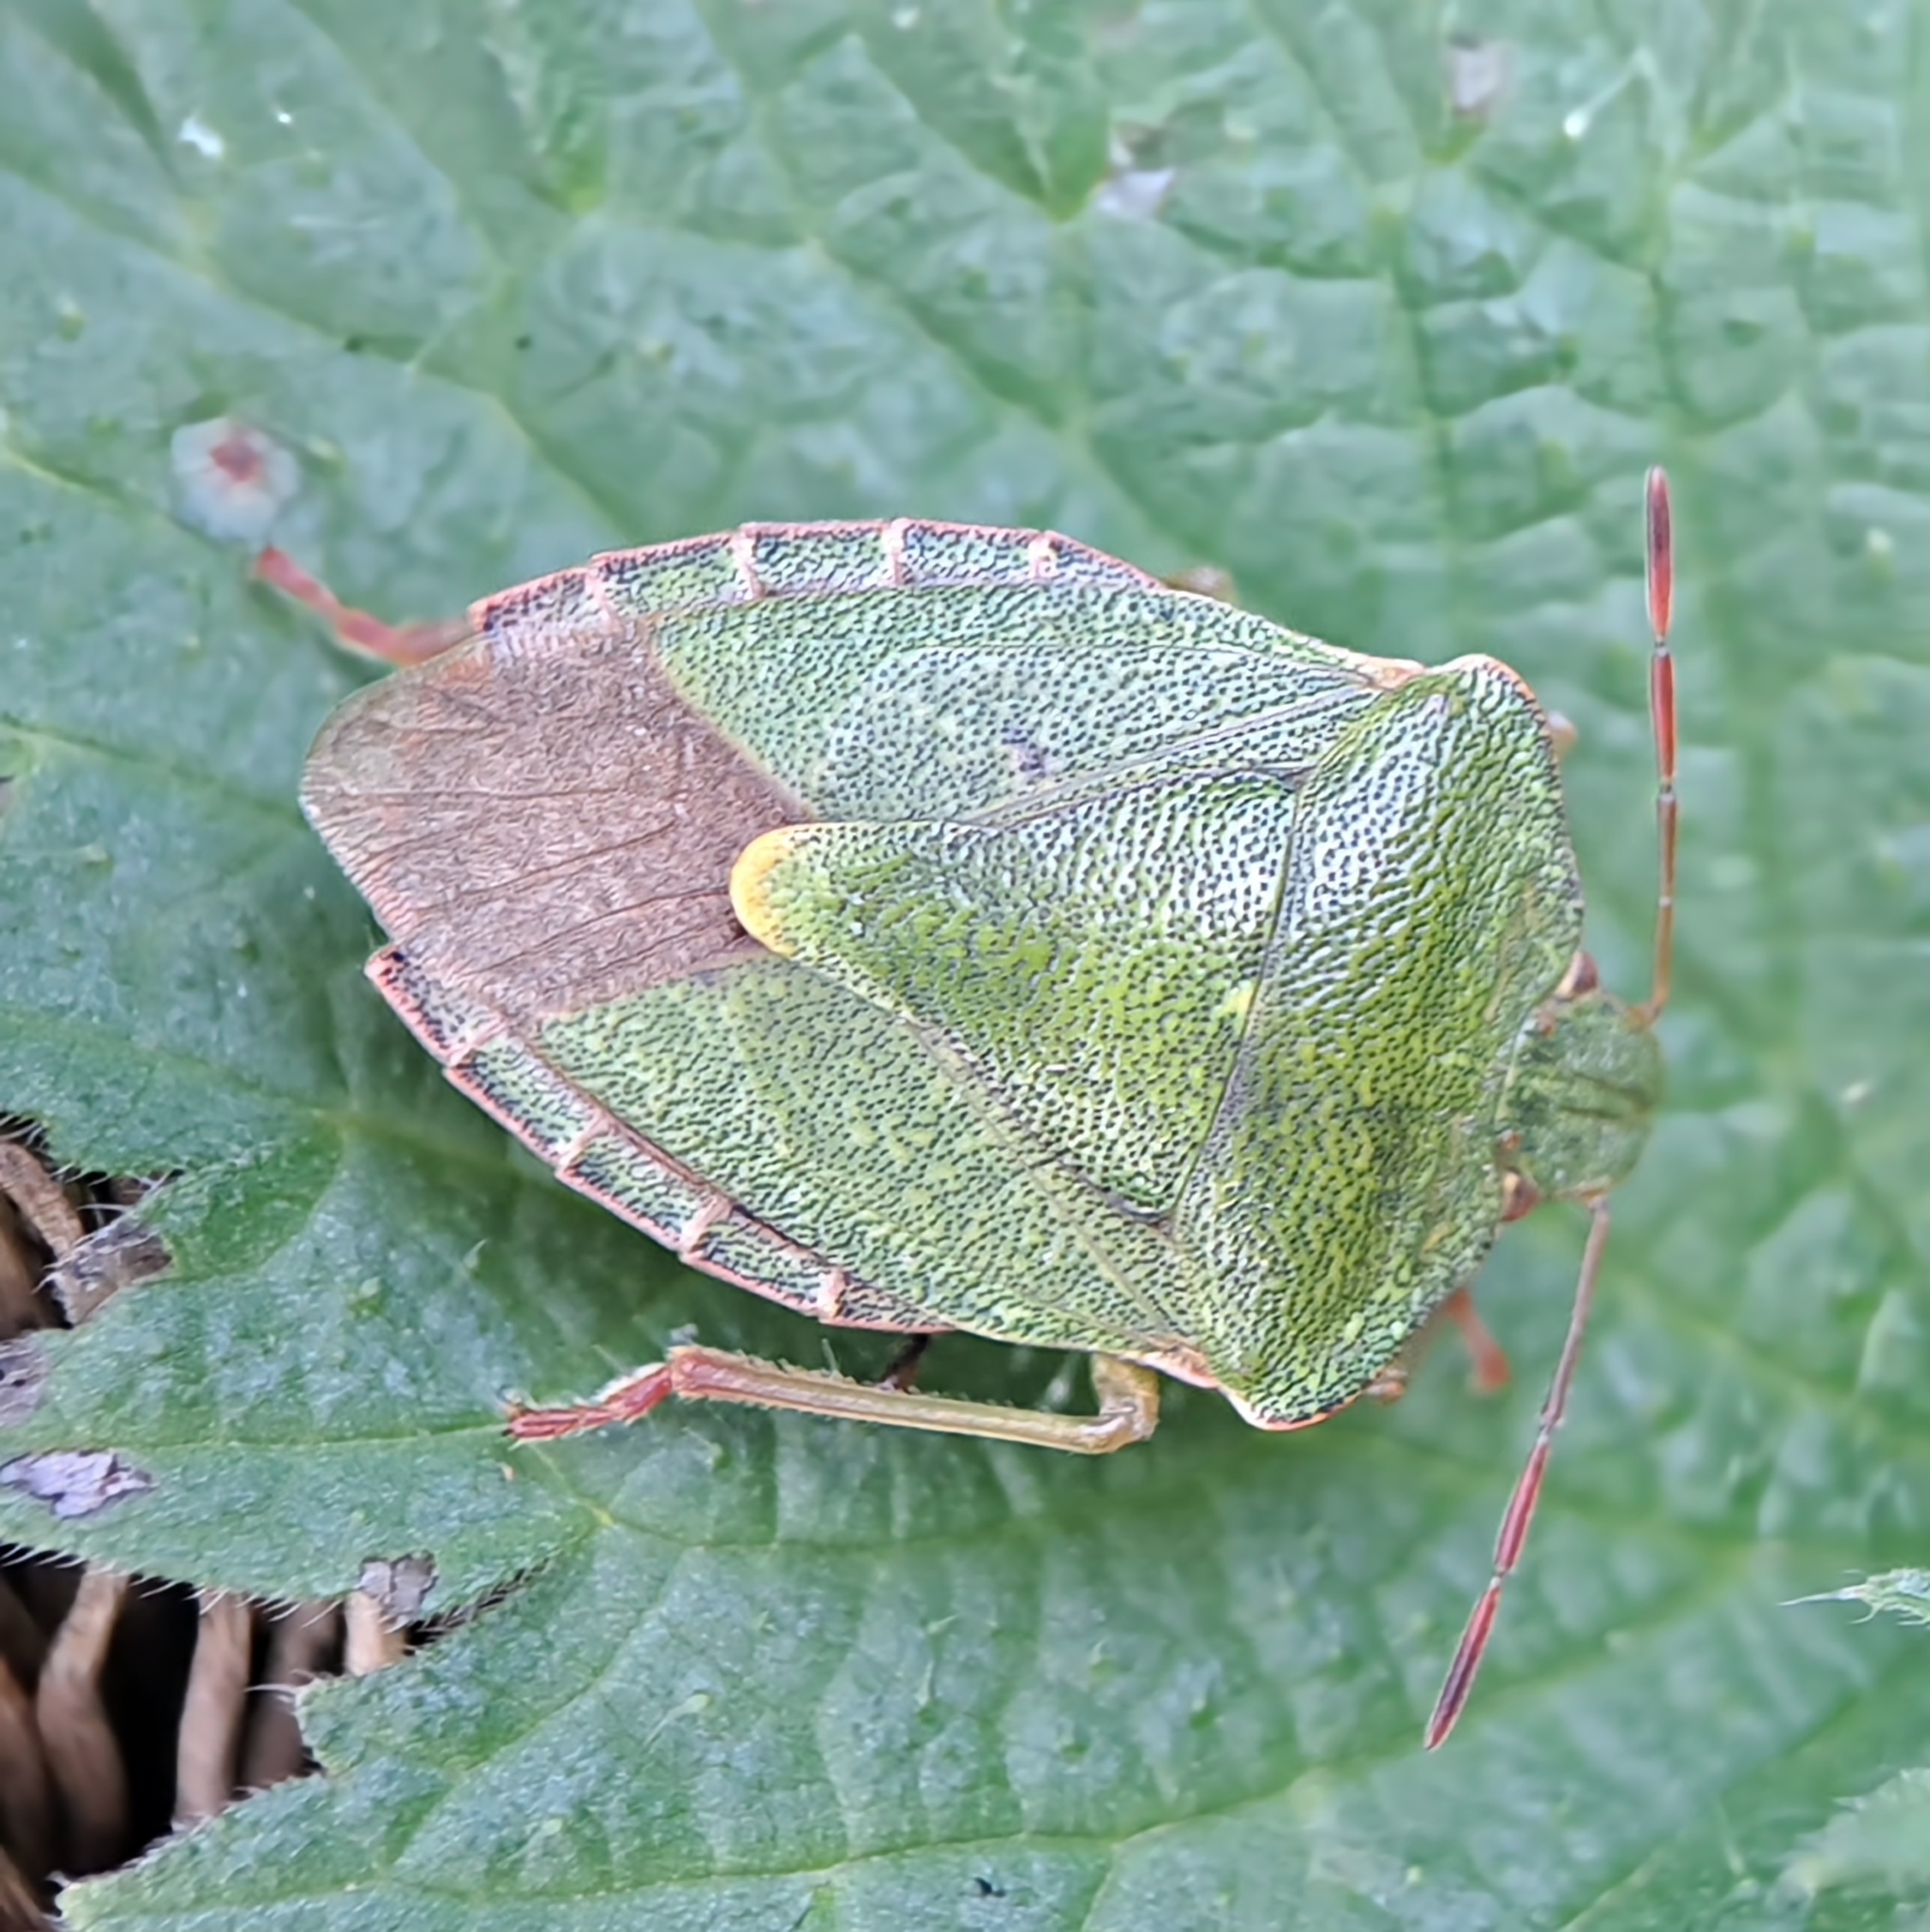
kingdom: Animalia
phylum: Arthropoda
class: Insecta
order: Hemiptera
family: Pentatomidae
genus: Palomena
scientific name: Palomena prasina
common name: Green shieldbug
